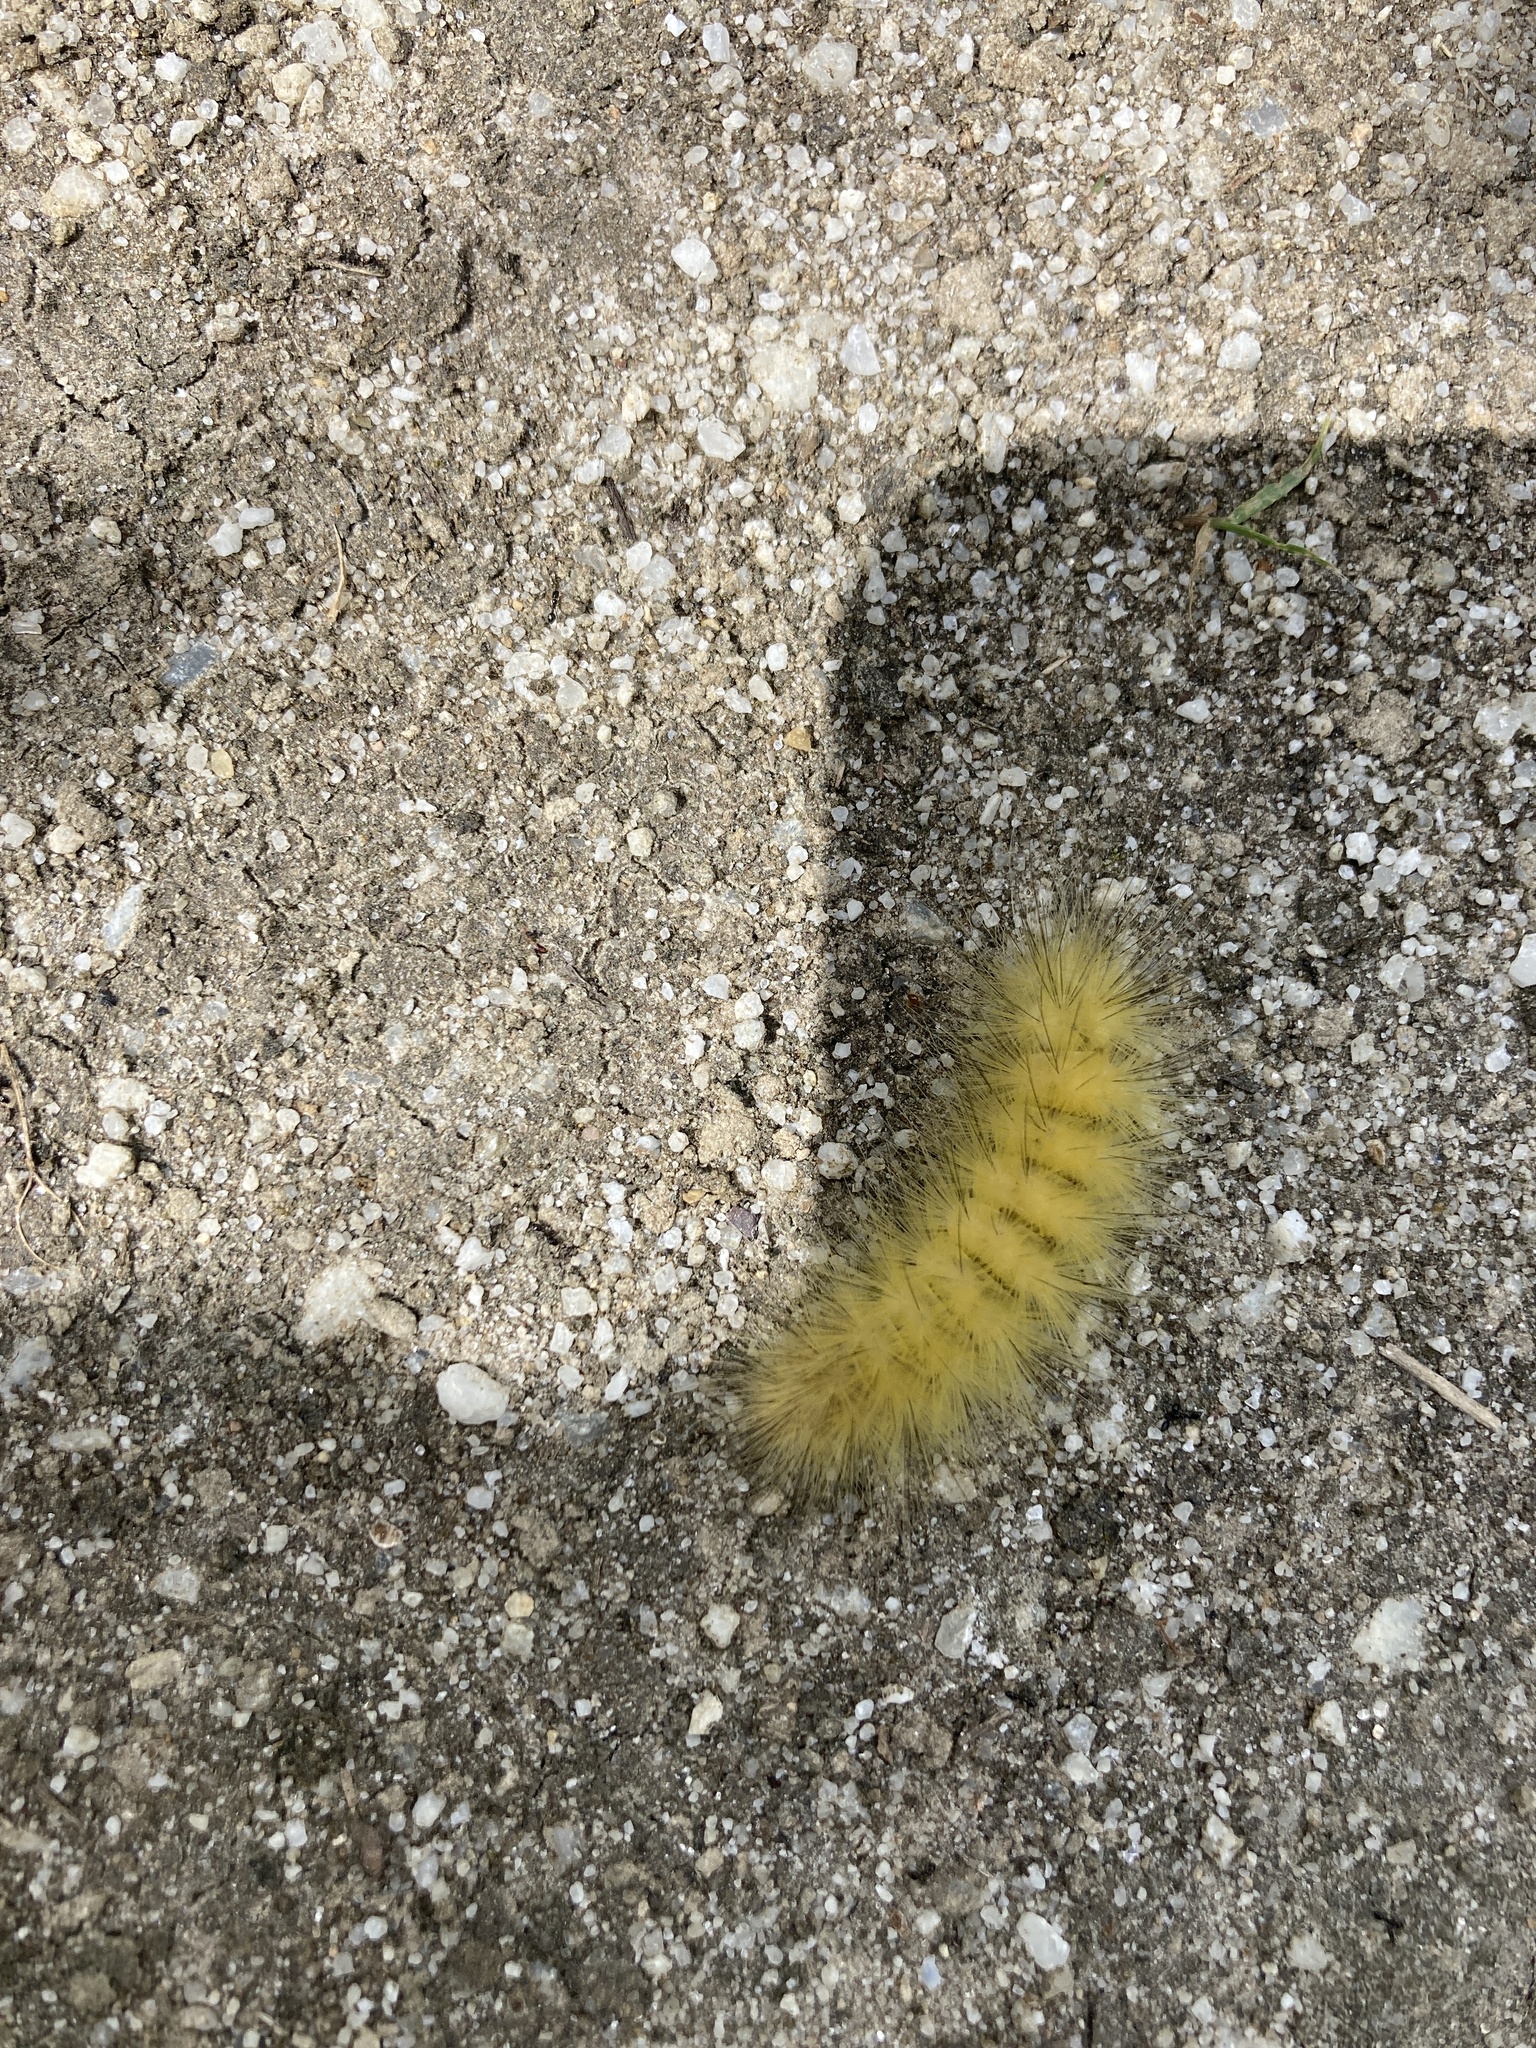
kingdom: Animalia
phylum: Arthropoda
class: Insecta
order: Lepidoptera
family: Erebidae
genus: Spilosoma
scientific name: Spilosoma virginica
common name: Virginia tiger moth
